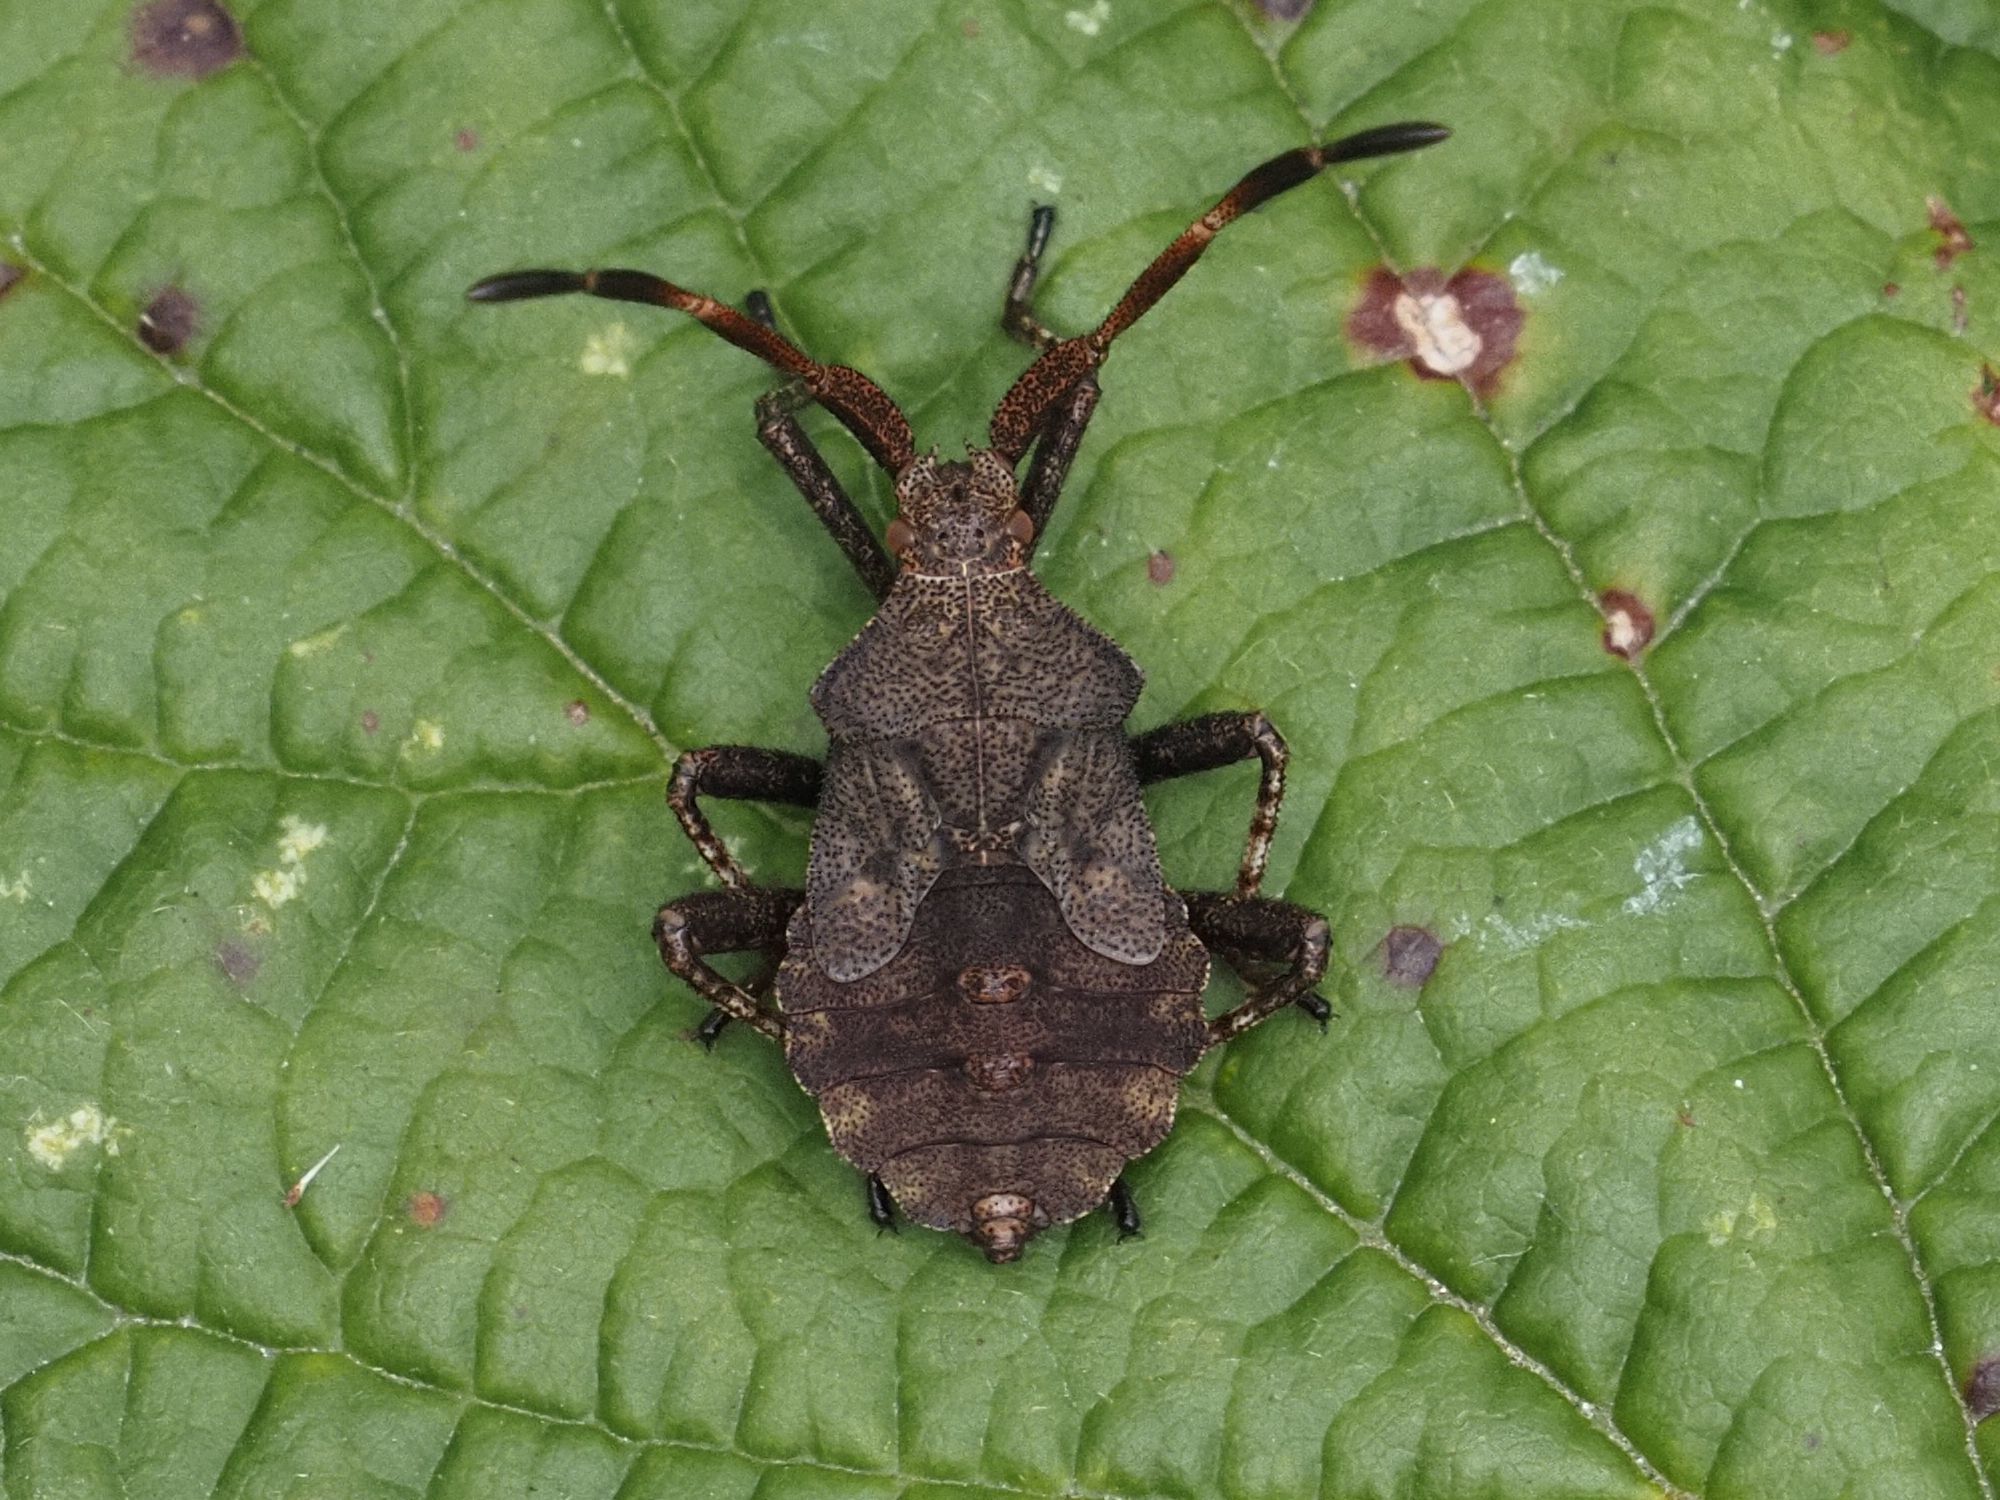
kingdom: Animalia
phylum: Arthropoda
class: Insecta
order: Hemiptera
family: Coreidae
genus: Coreus
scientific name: Coreus marginatus
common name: Dock bug
